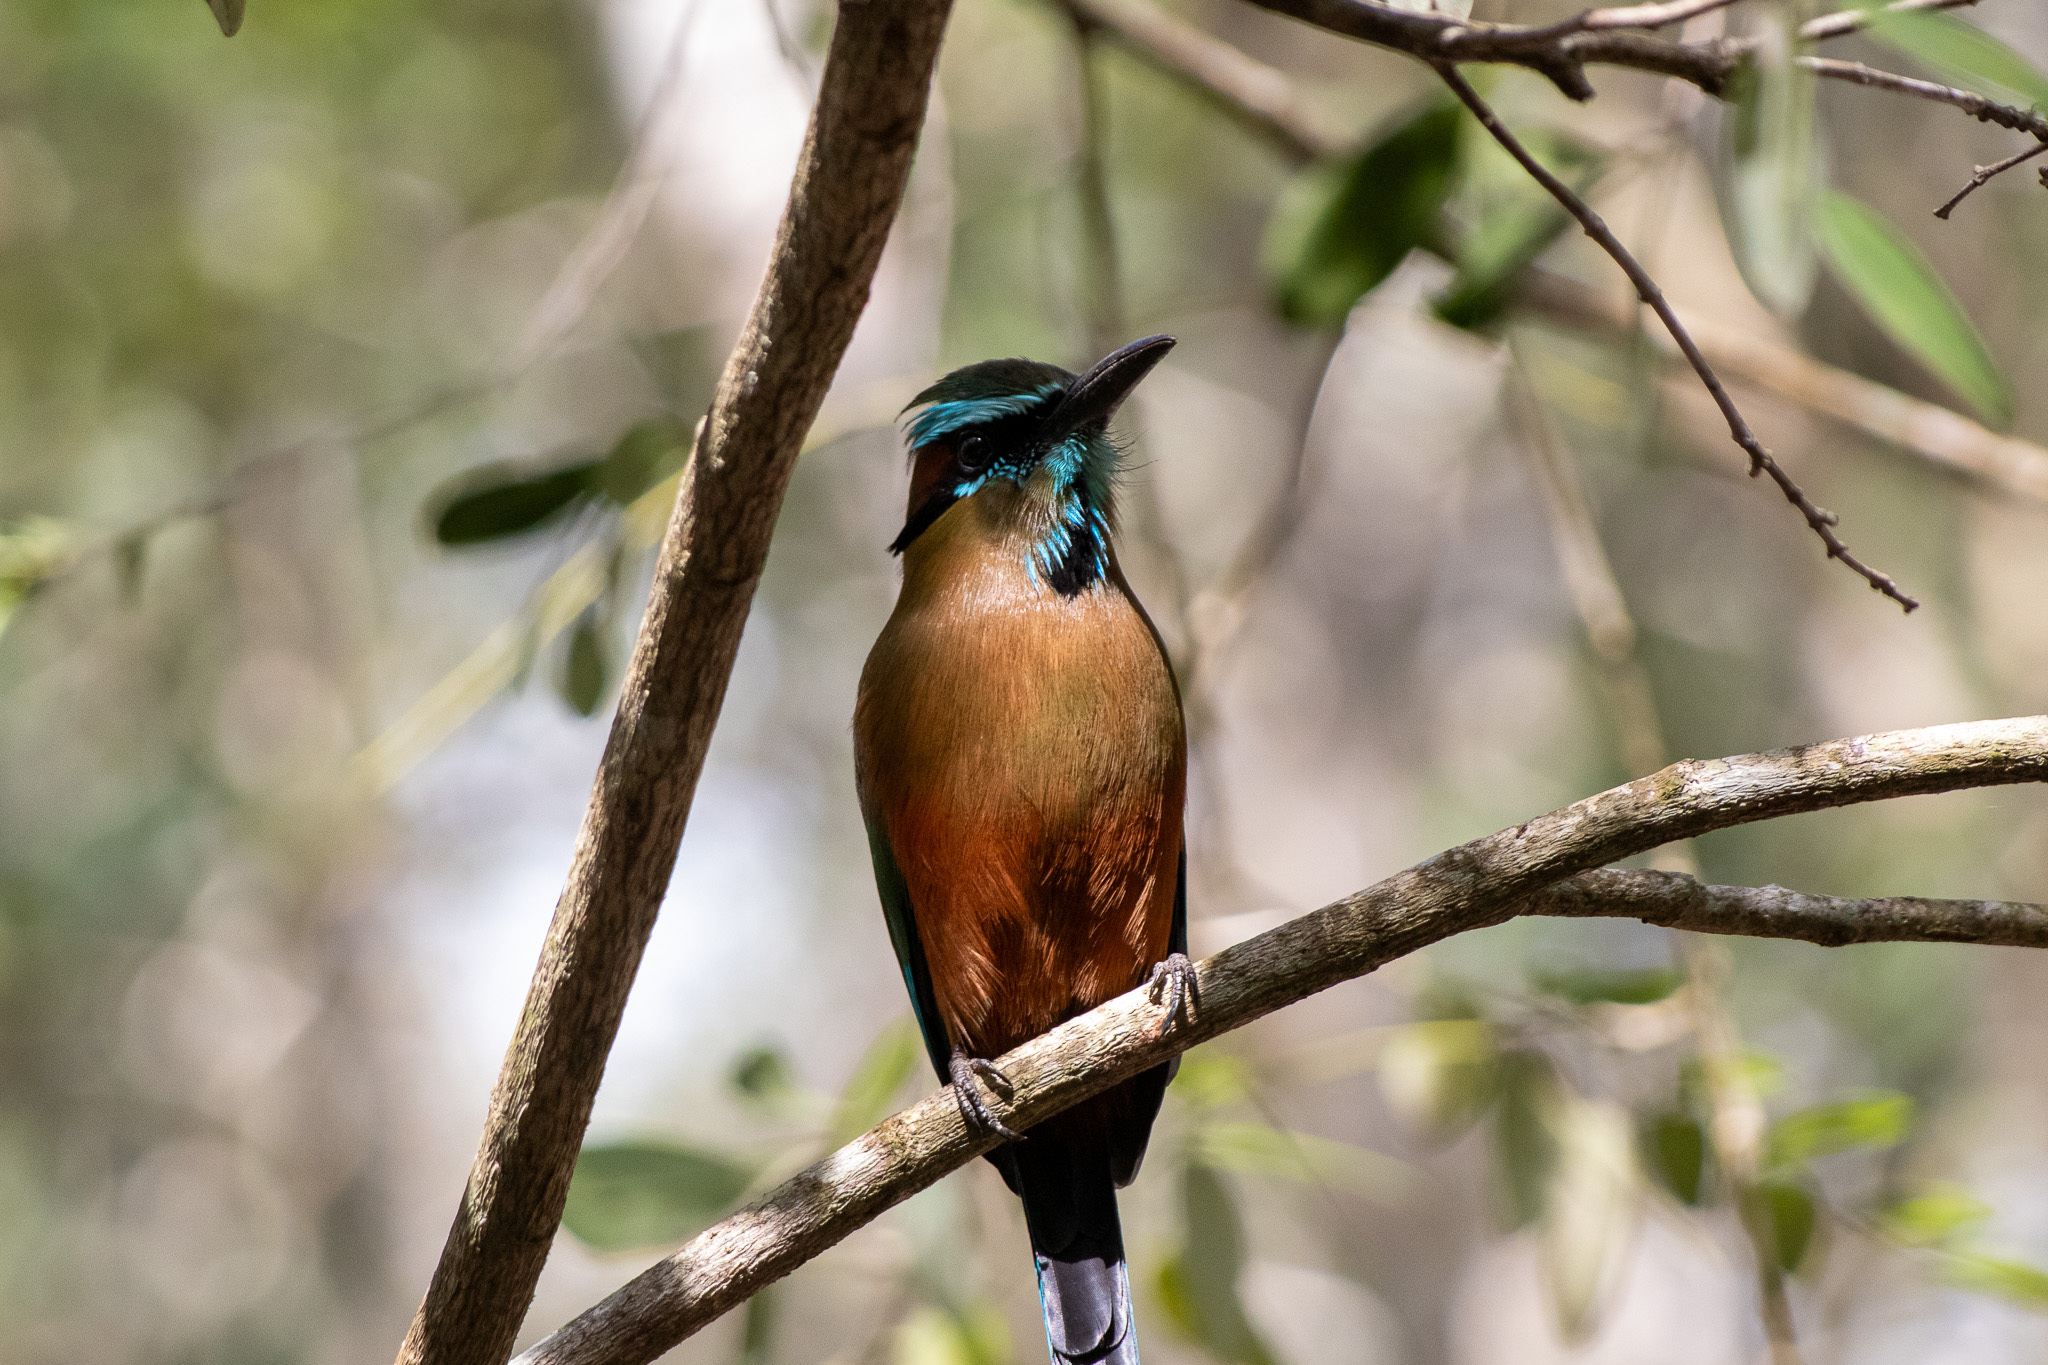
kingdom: Animalia
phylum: Chordata
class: Aves
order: Coraciiformes
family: Momotidae
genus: Eumomota
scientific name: Eumomota superciliosa
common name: Turquoise-browed motmot
